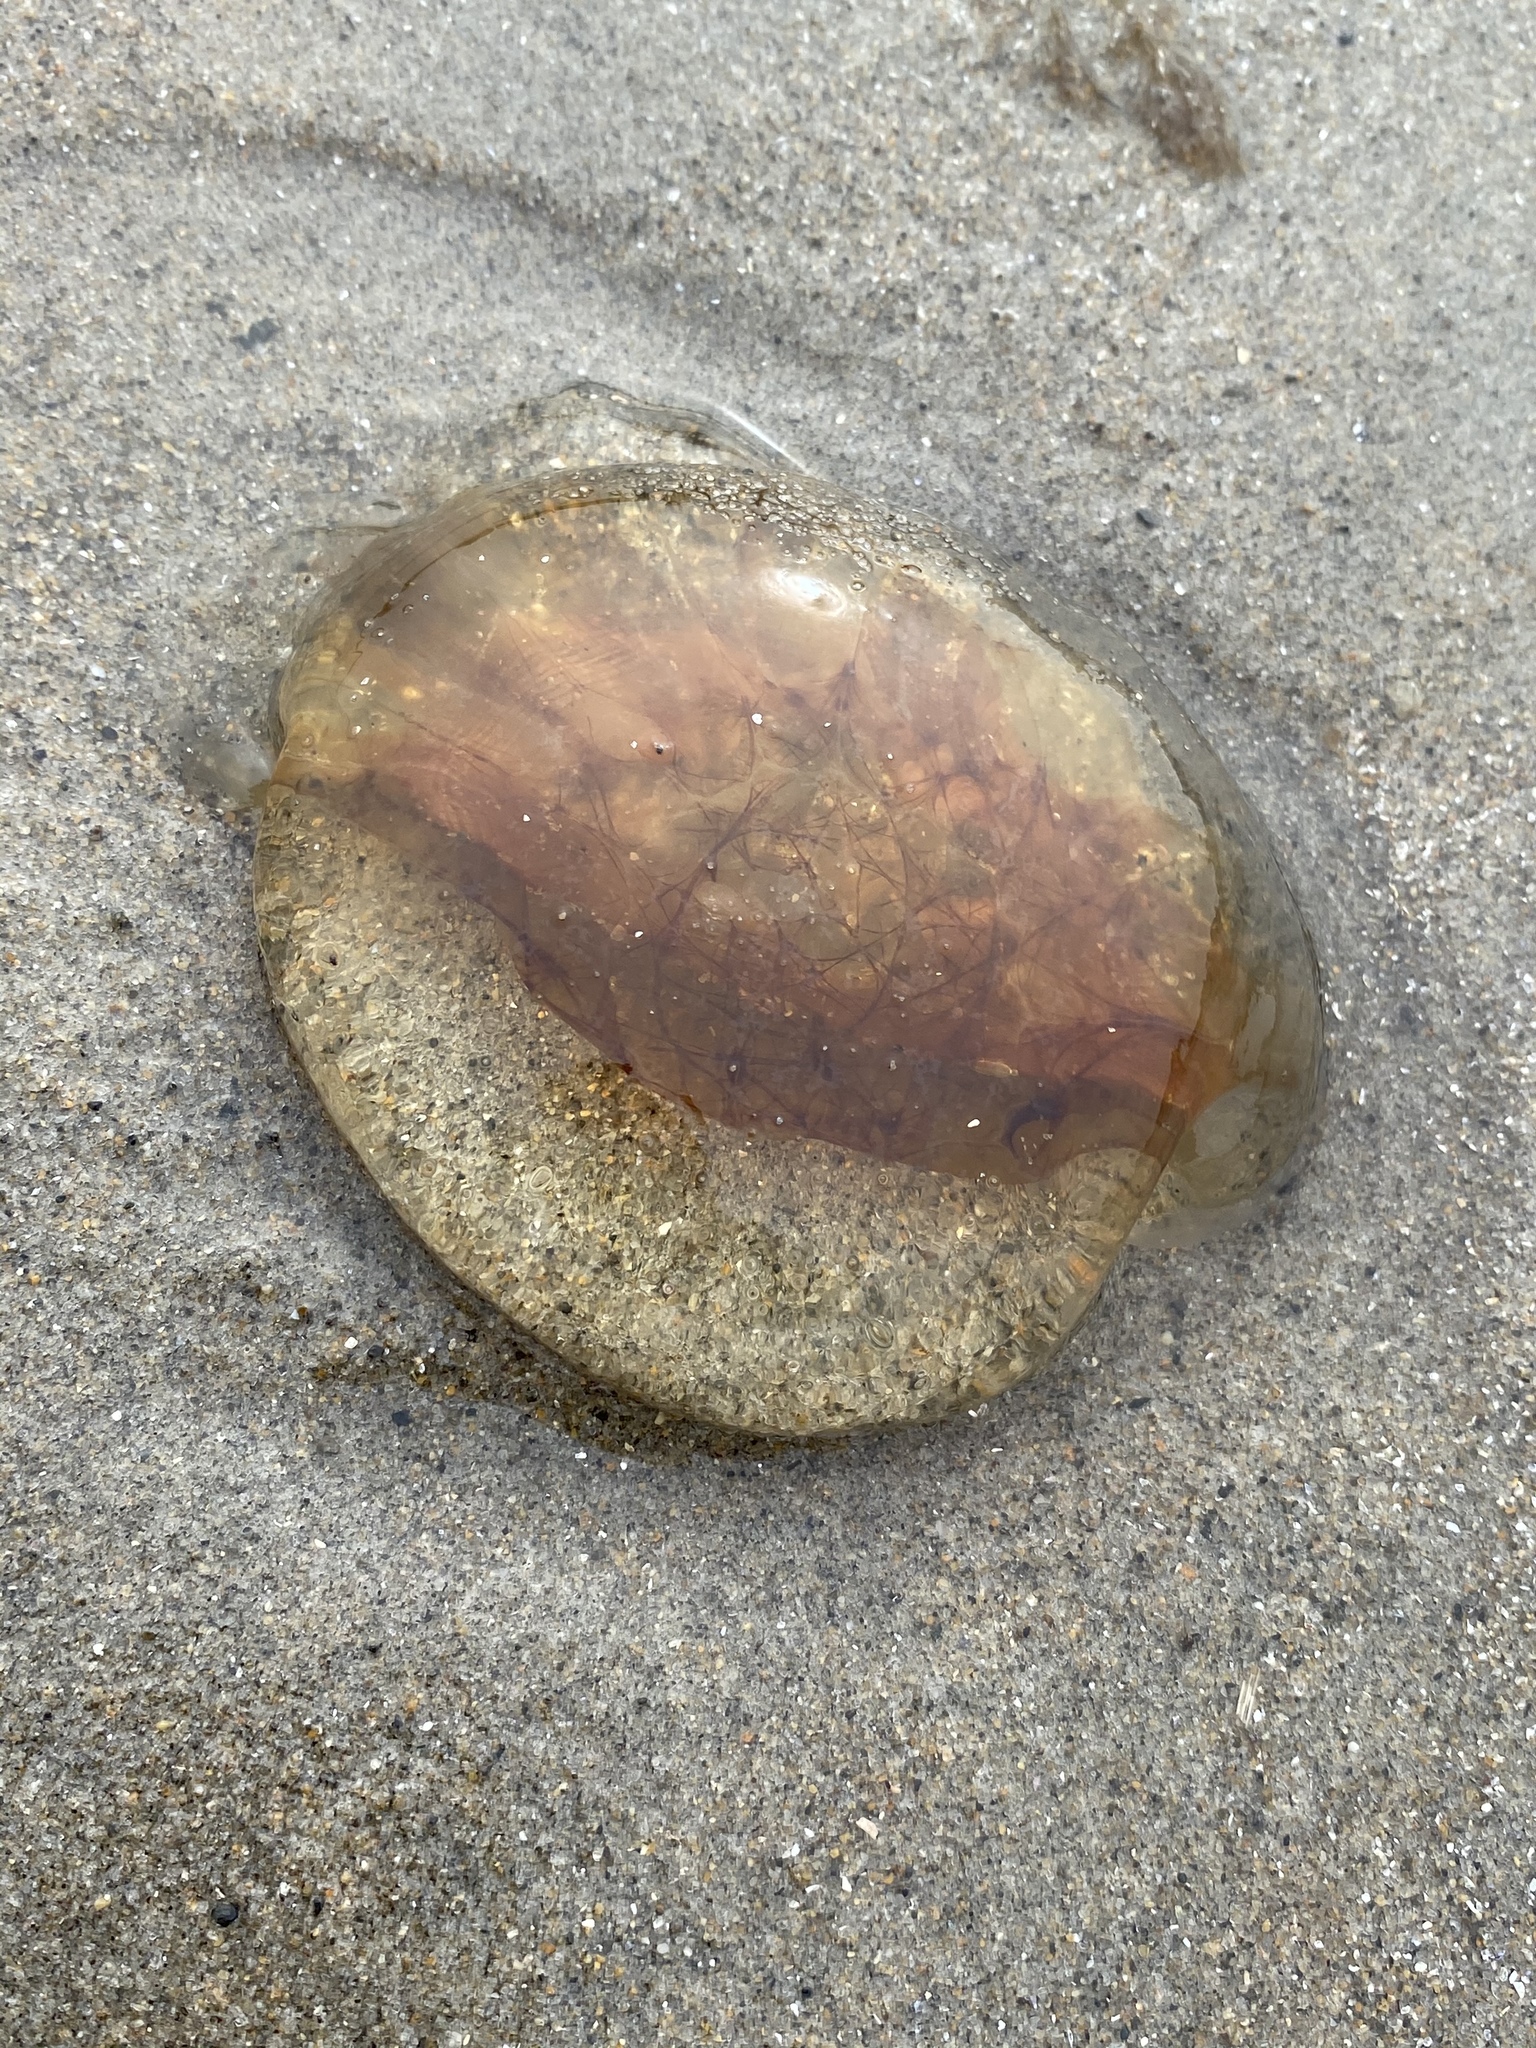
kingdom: Animalia
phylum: Cnidaria
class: Scyphozoa
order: Semaeostomeae
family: Cyaneidae
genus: Cyanea
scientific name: Cyanea fulva
